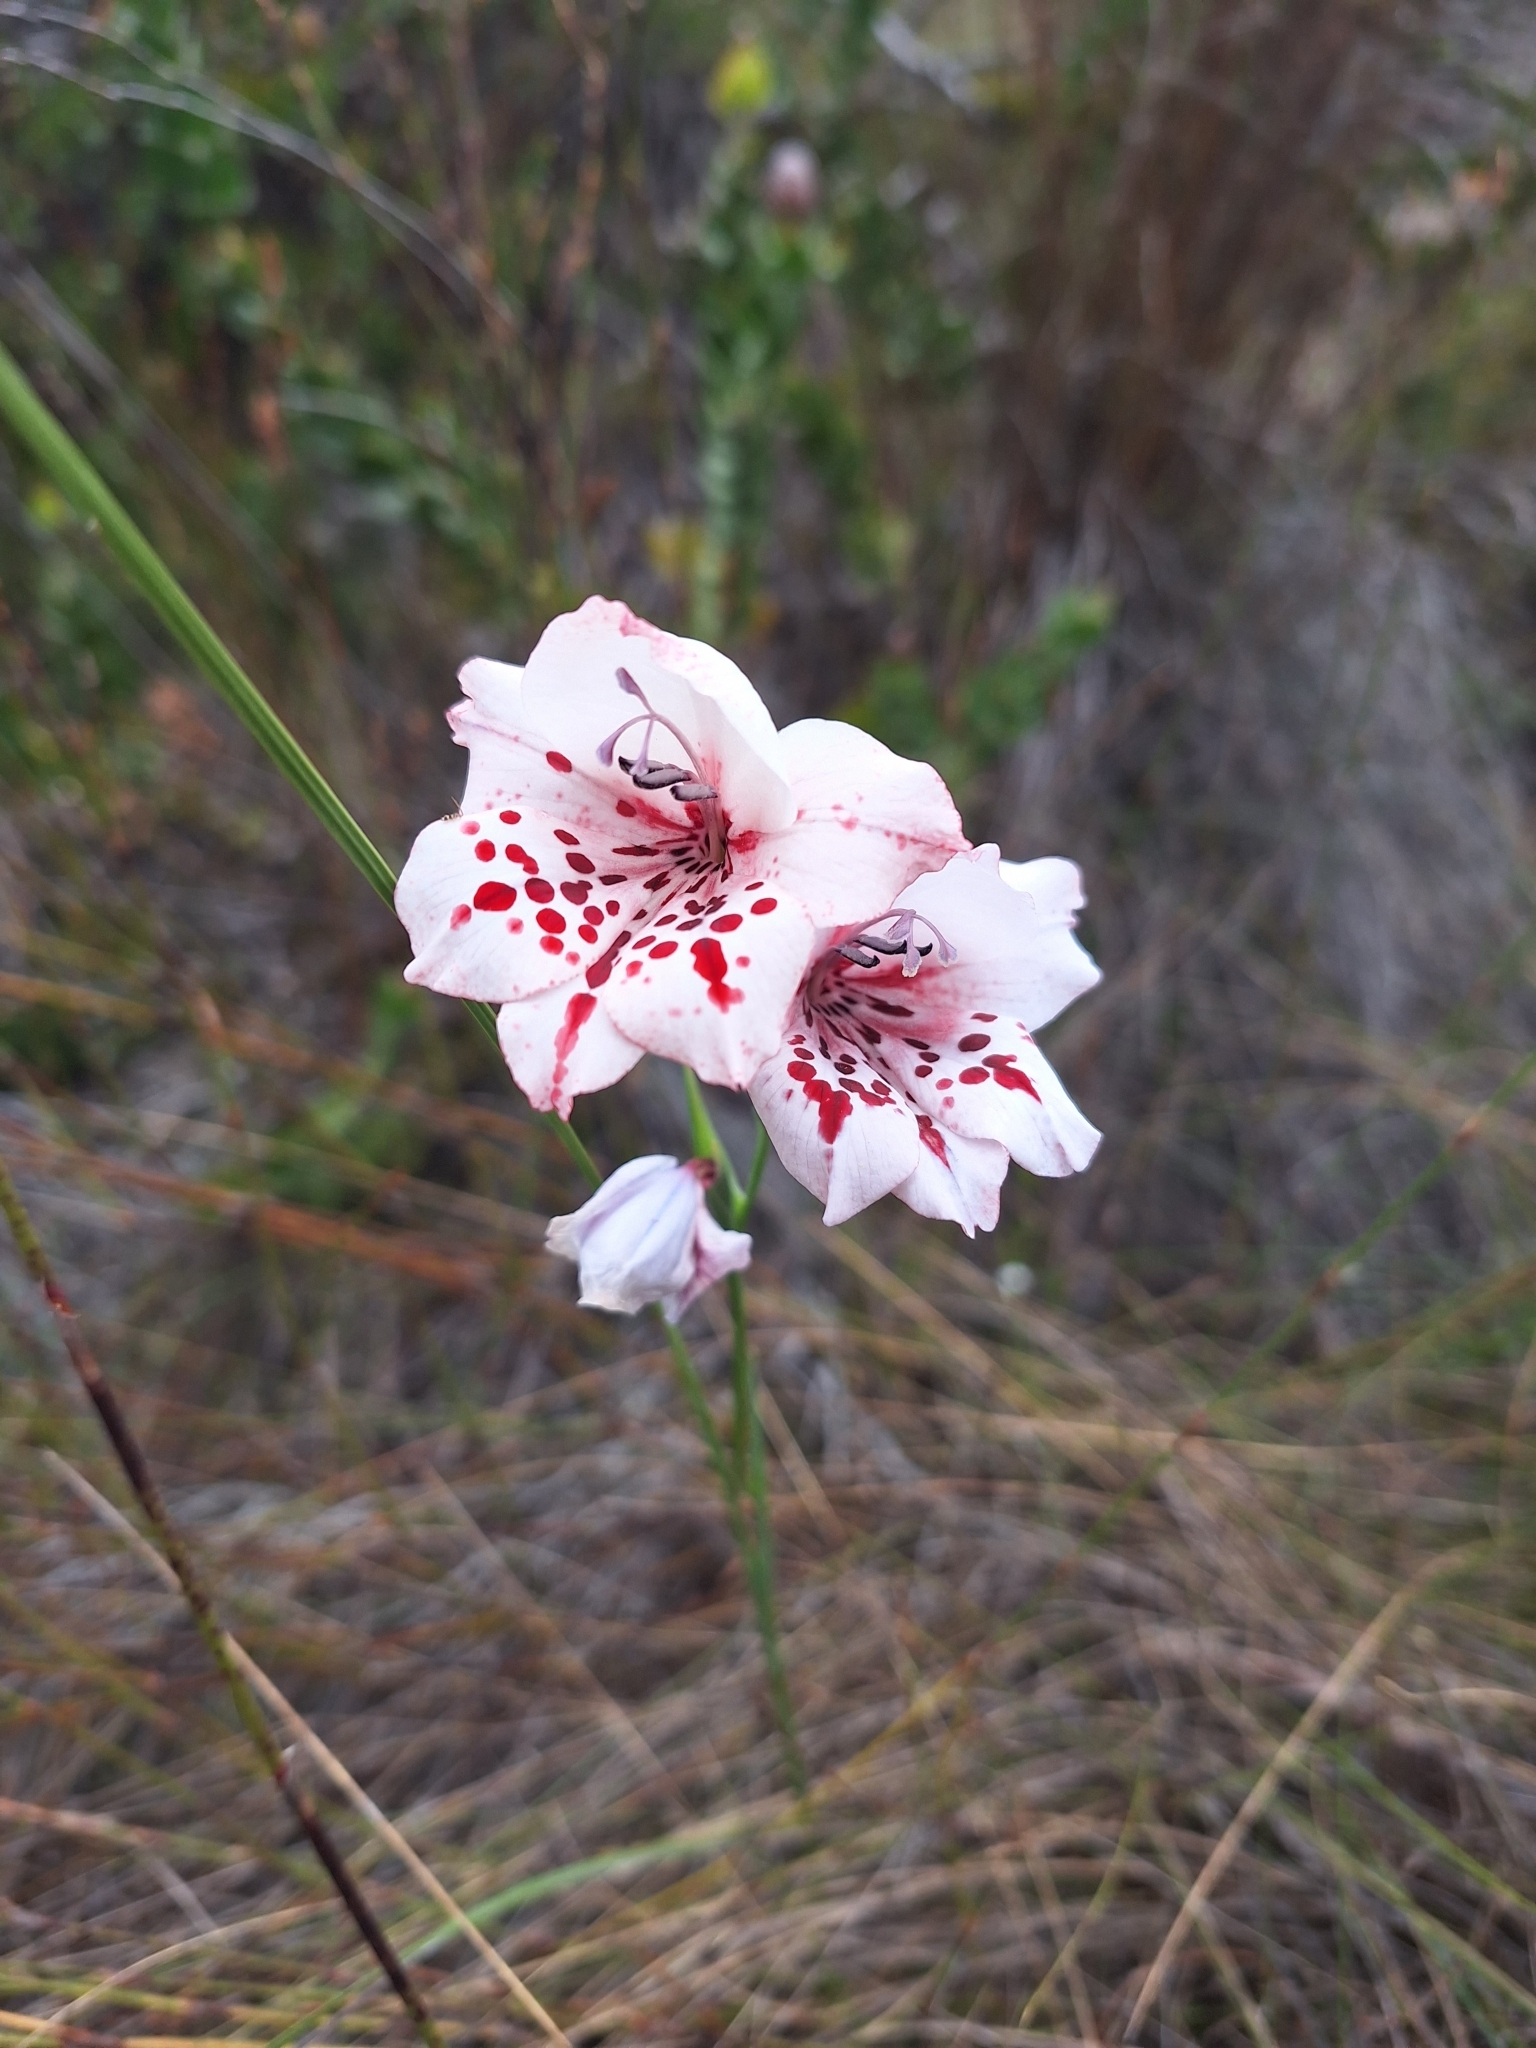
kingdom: Plantae
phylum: Tracheophyta
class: Liliopsida
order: Asparagales
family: Iridaceae
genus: Gladiolus
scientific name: Gladiolus variegatus
